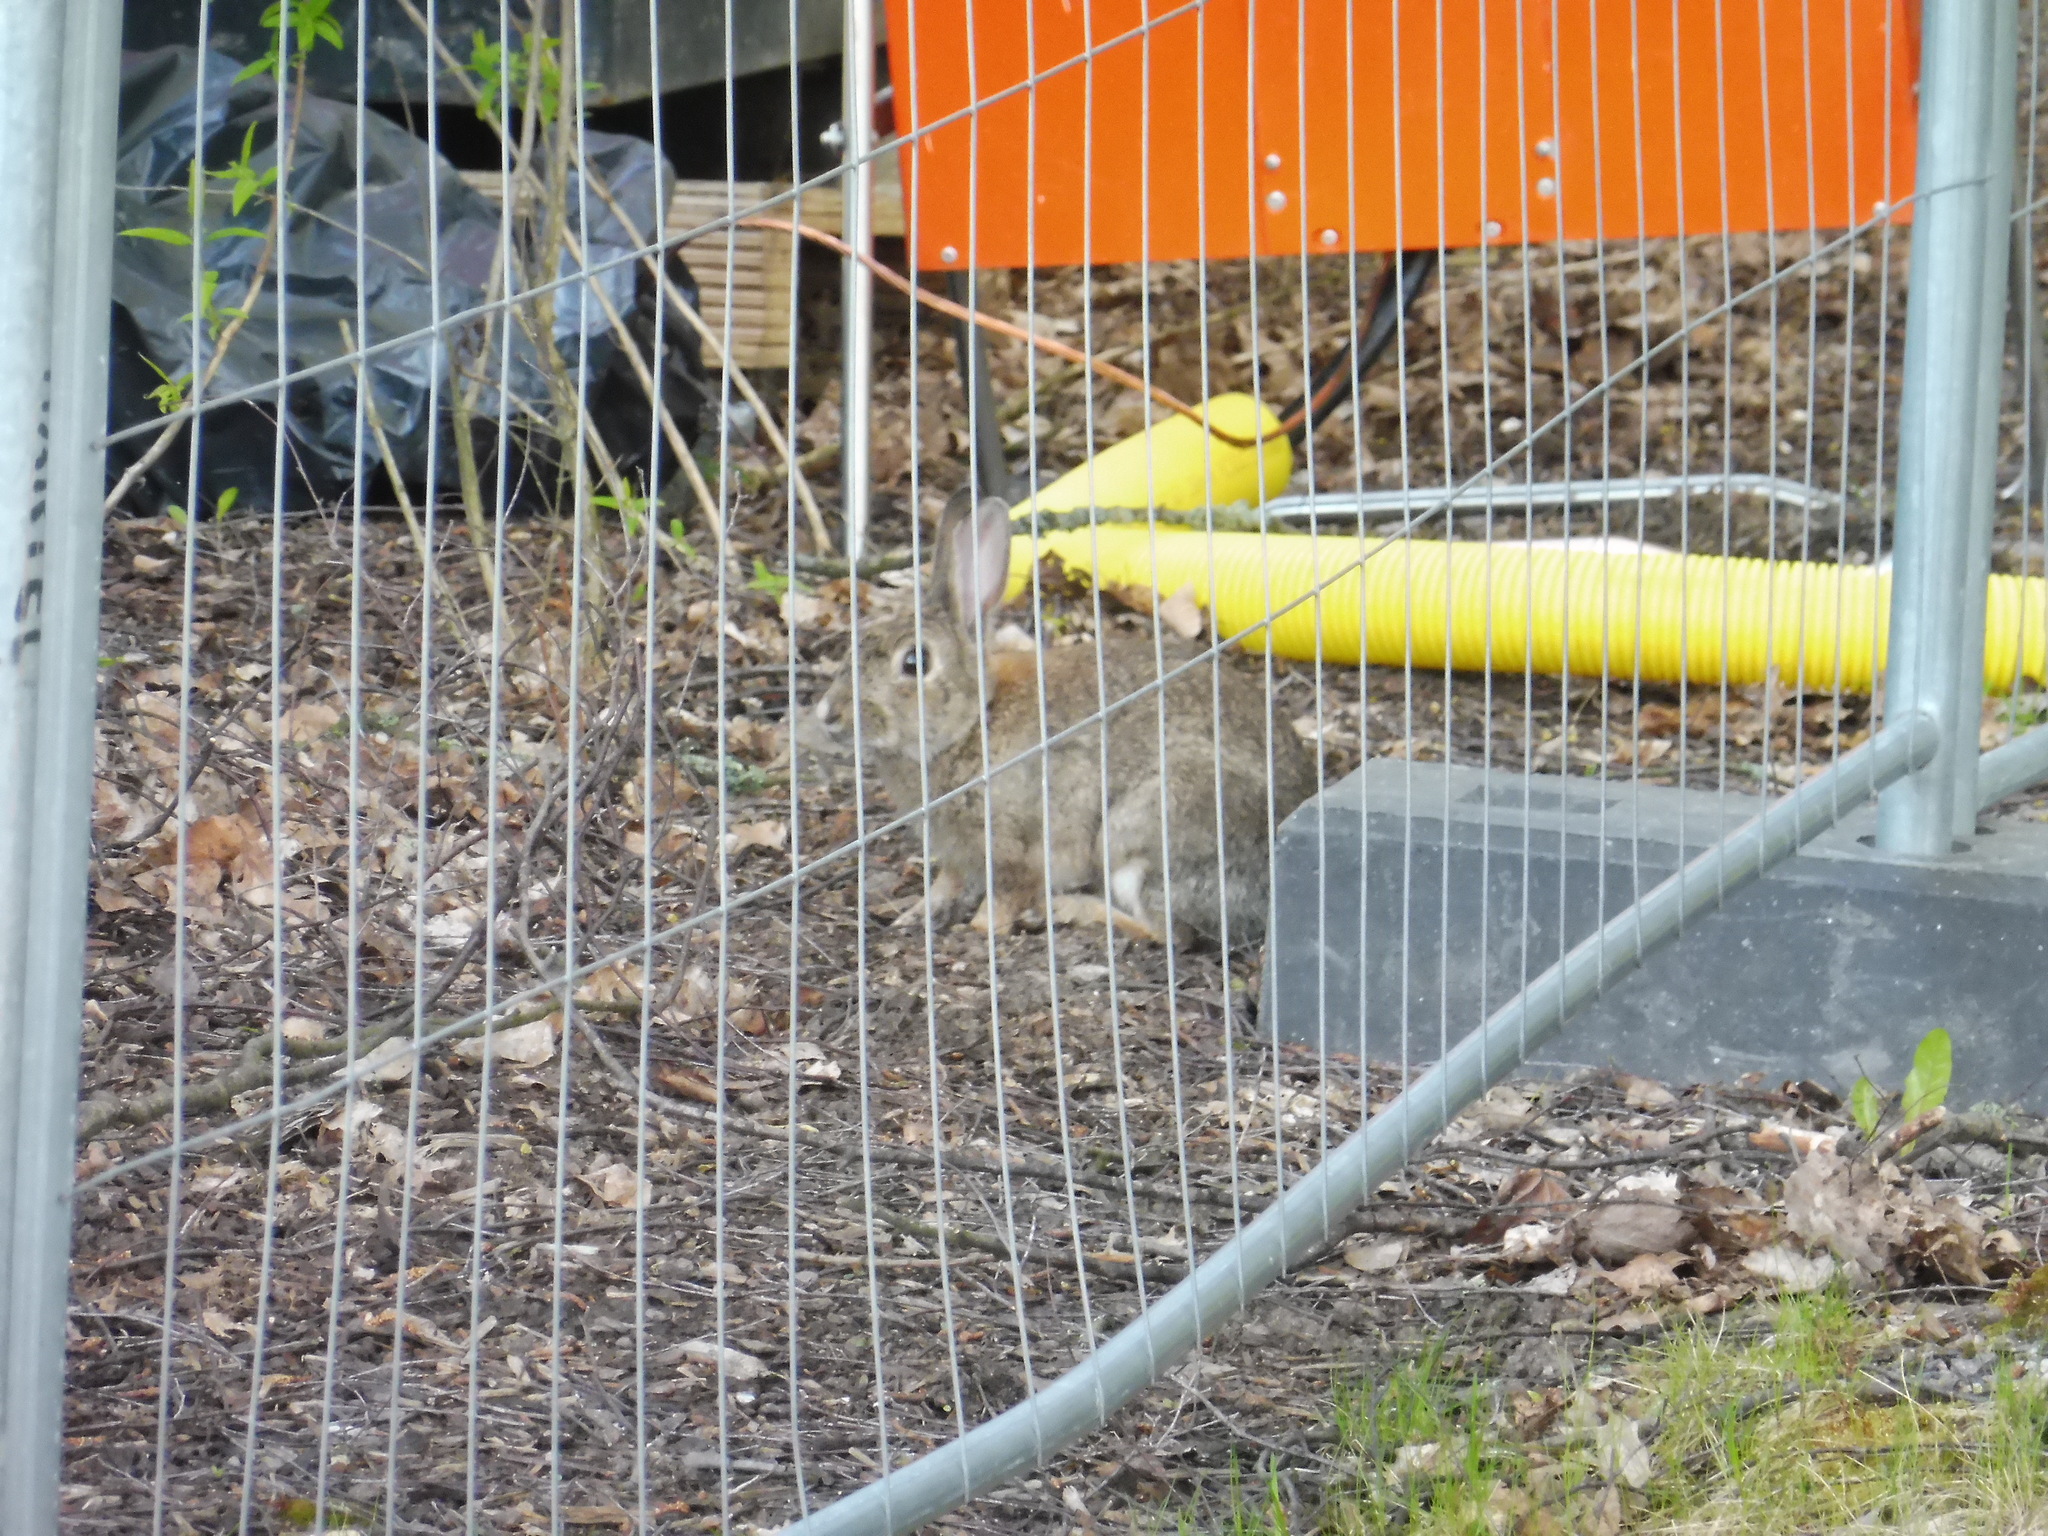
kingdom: Animalia
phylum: Chordata
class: Mammalia
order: Lagomorpha
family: Leporidae
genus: Oryctolagus
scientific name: Oryctolagus cuniculus
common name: European rabbit
